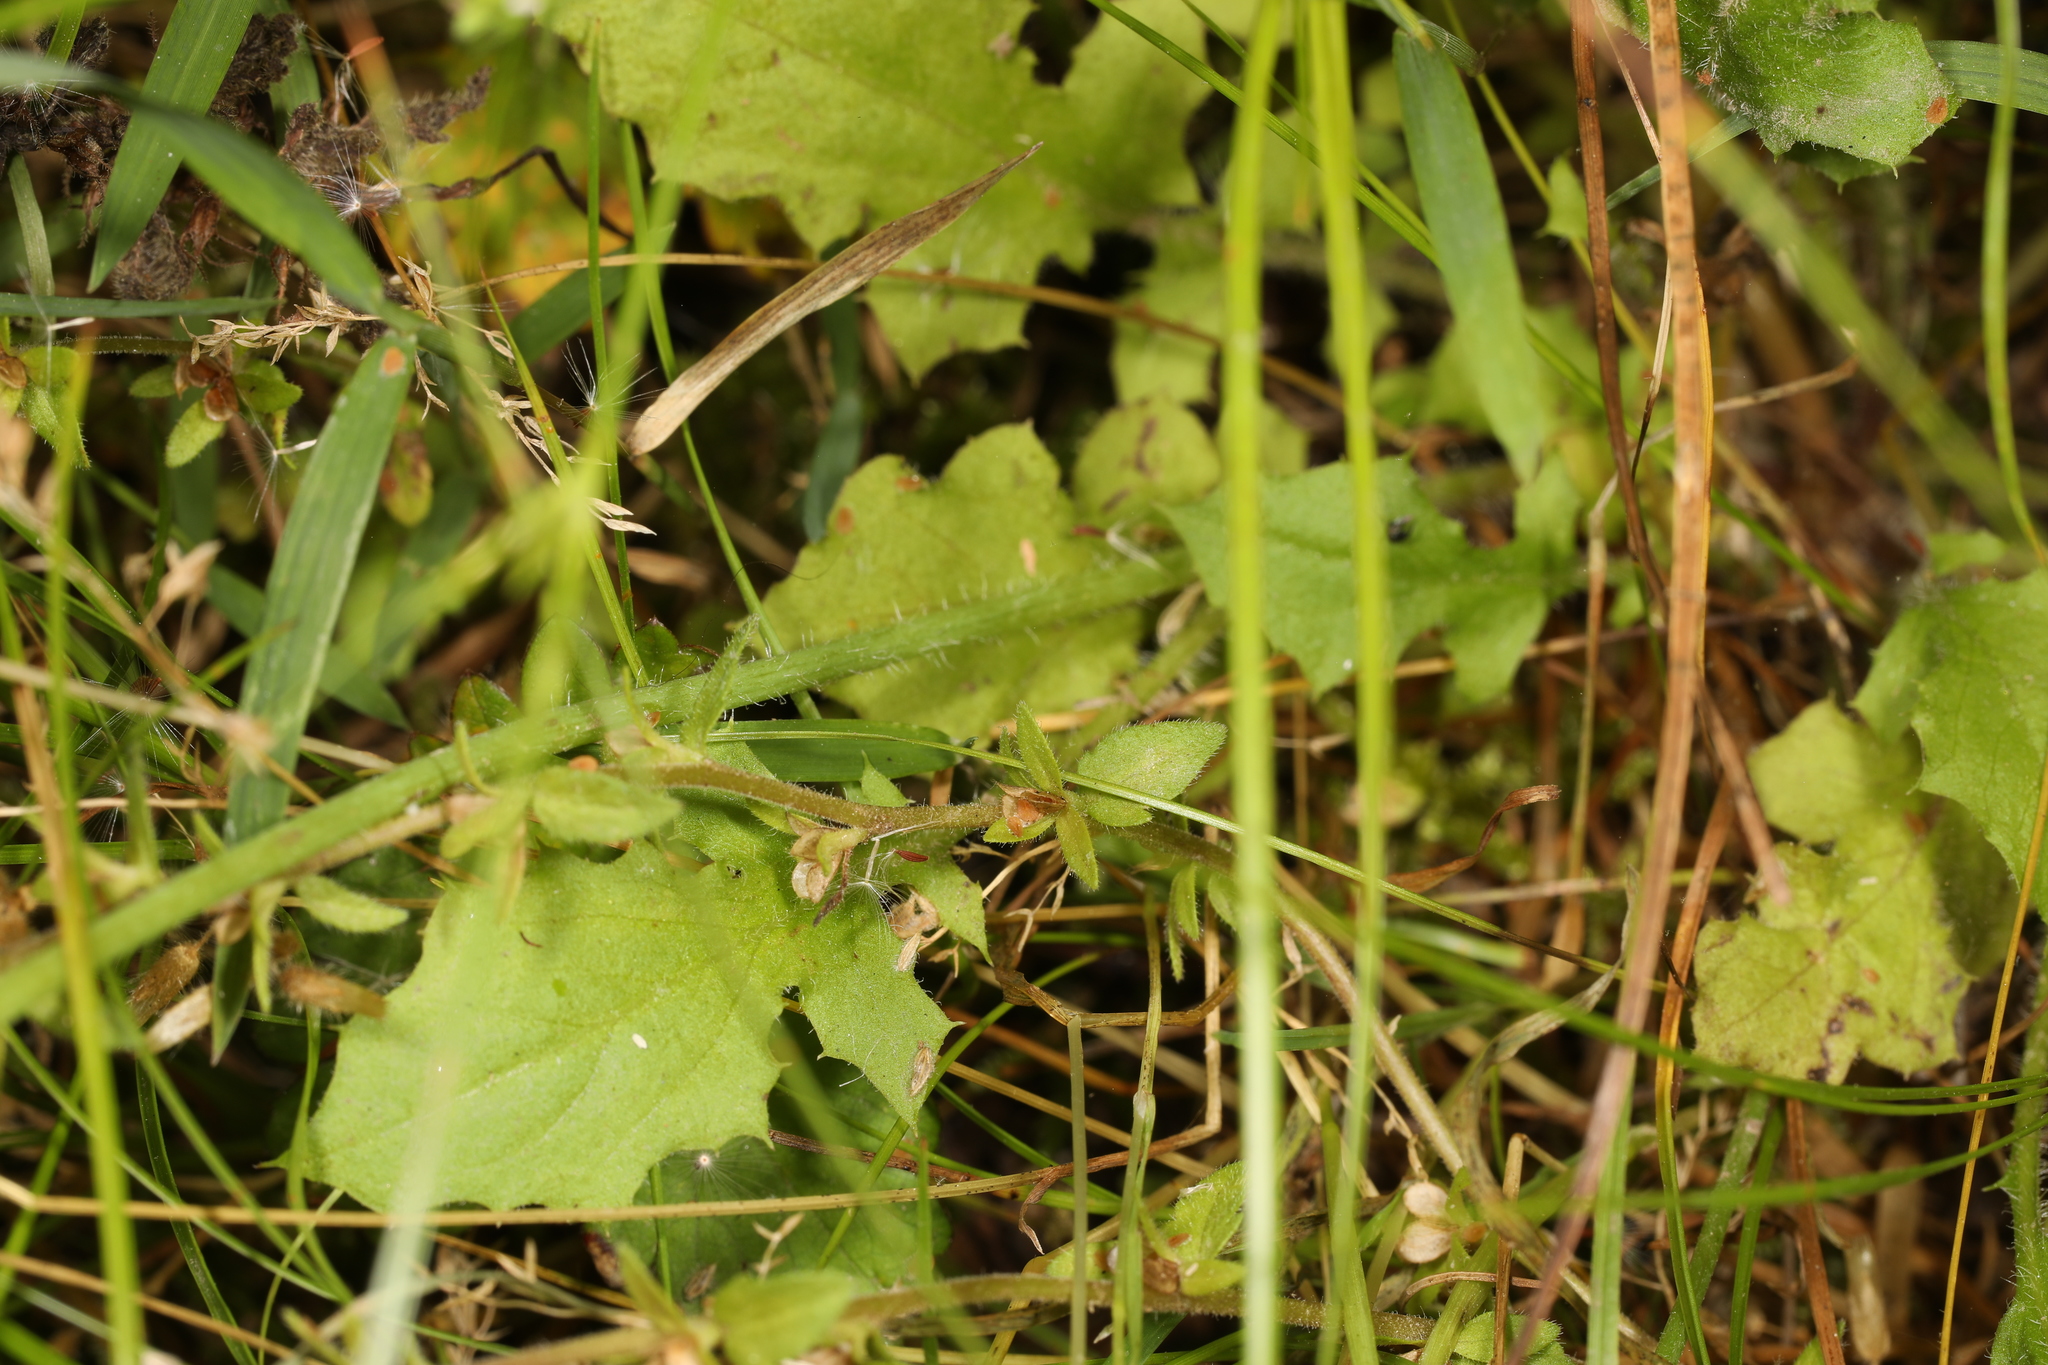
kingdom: Plantae
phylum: Tracheophyta
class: Magnoliopsida
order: Asterales
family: Asteraceae
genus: Youngia
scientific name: Youngia japonica
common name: Oriental false hawksbeard
